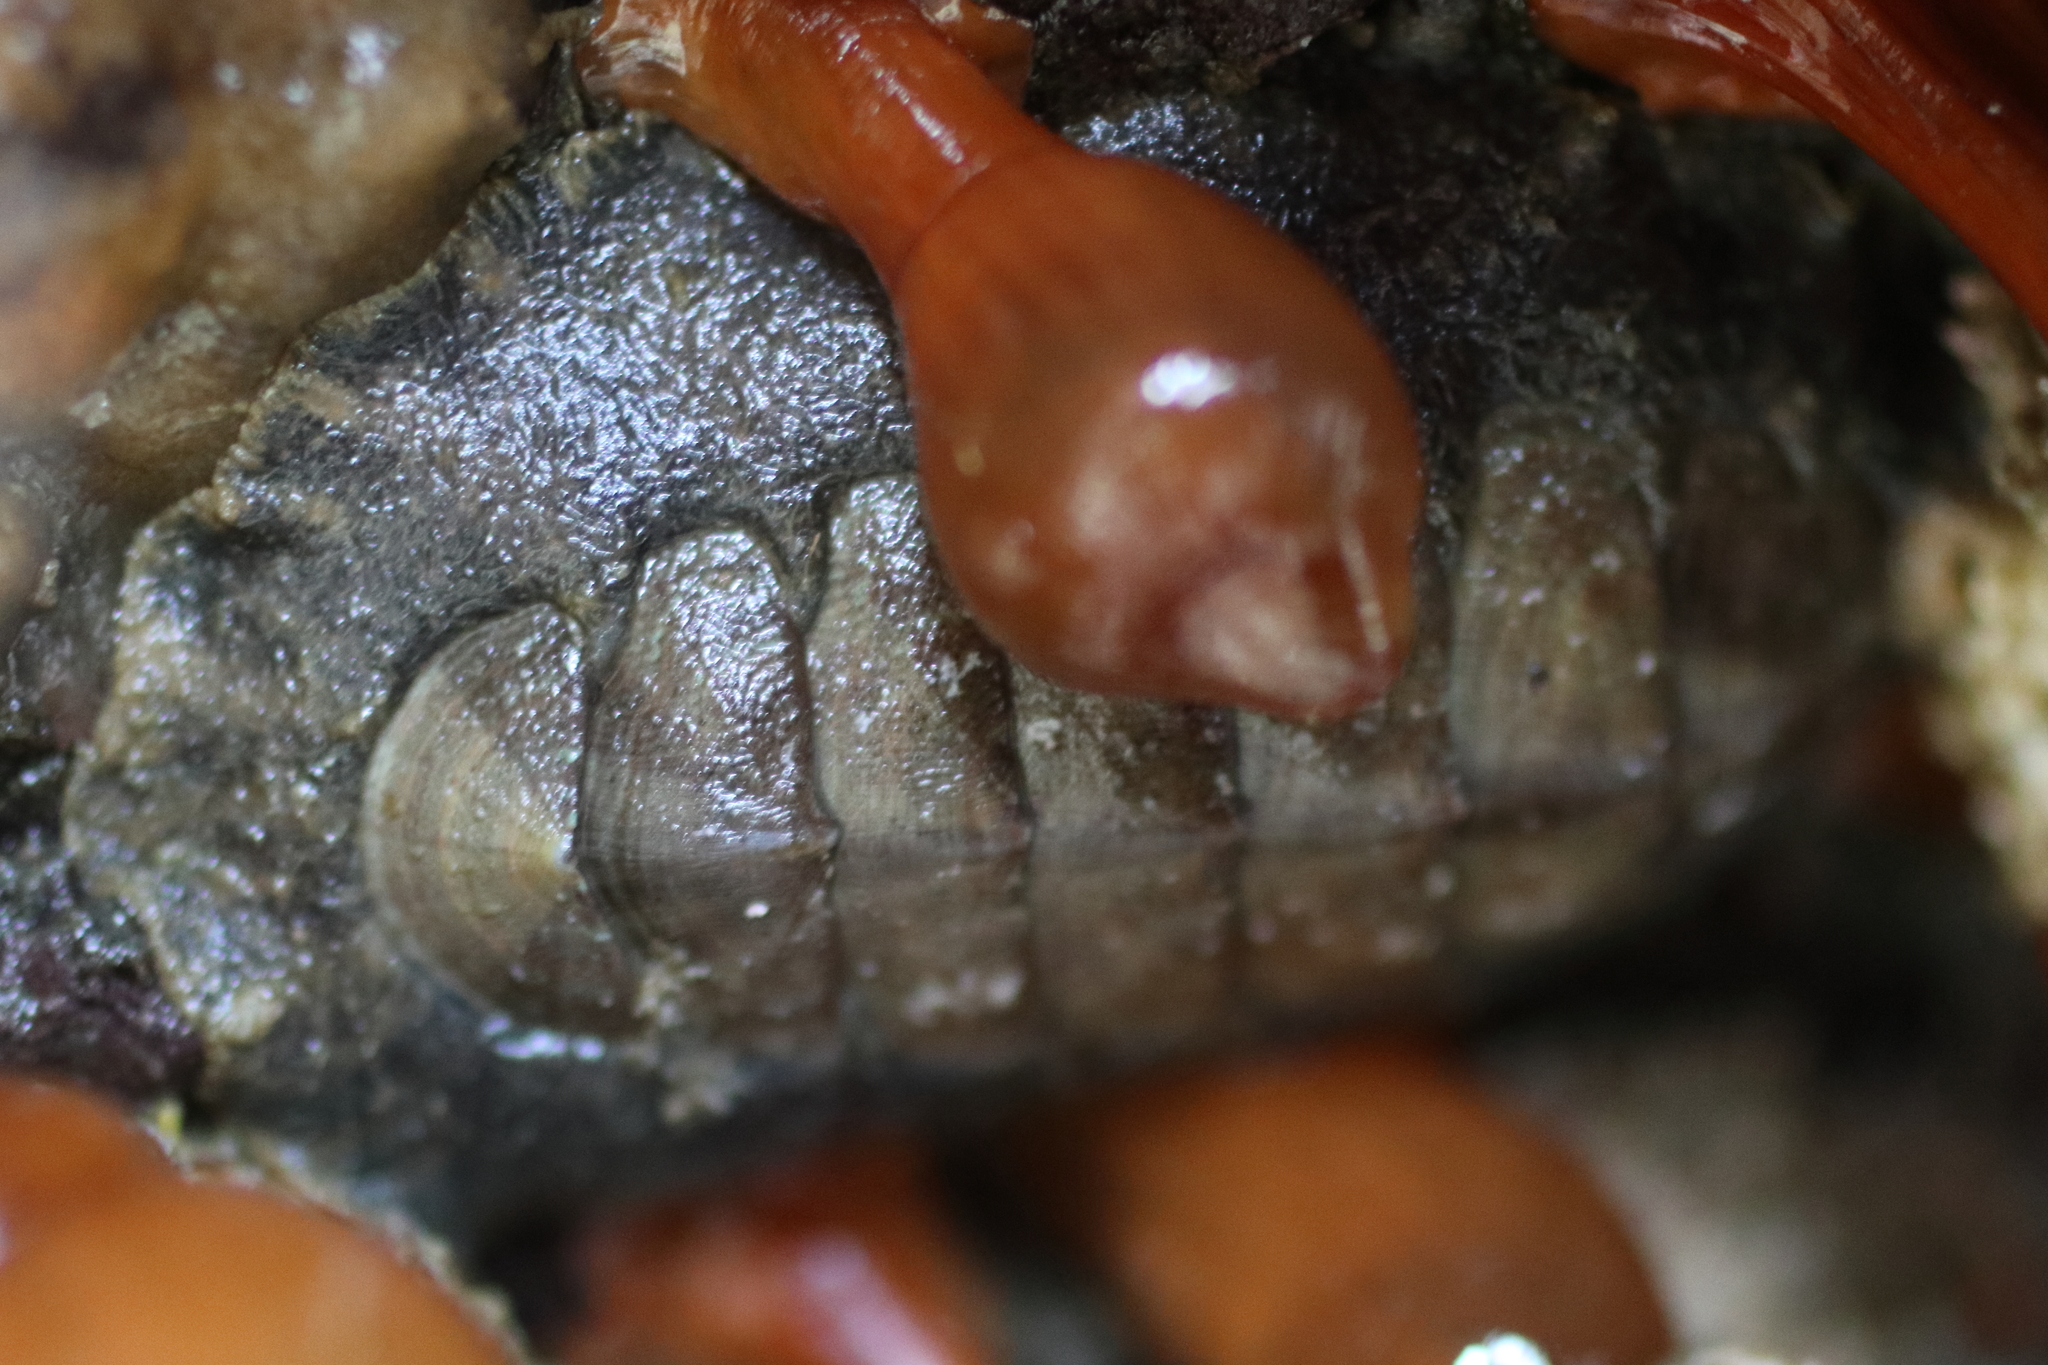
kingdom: Animalia
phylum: Mollusca
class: Polyplacophora
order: Chitonida
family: Mopaliidae
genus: Mopalia
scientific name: Mopalia hindsii
